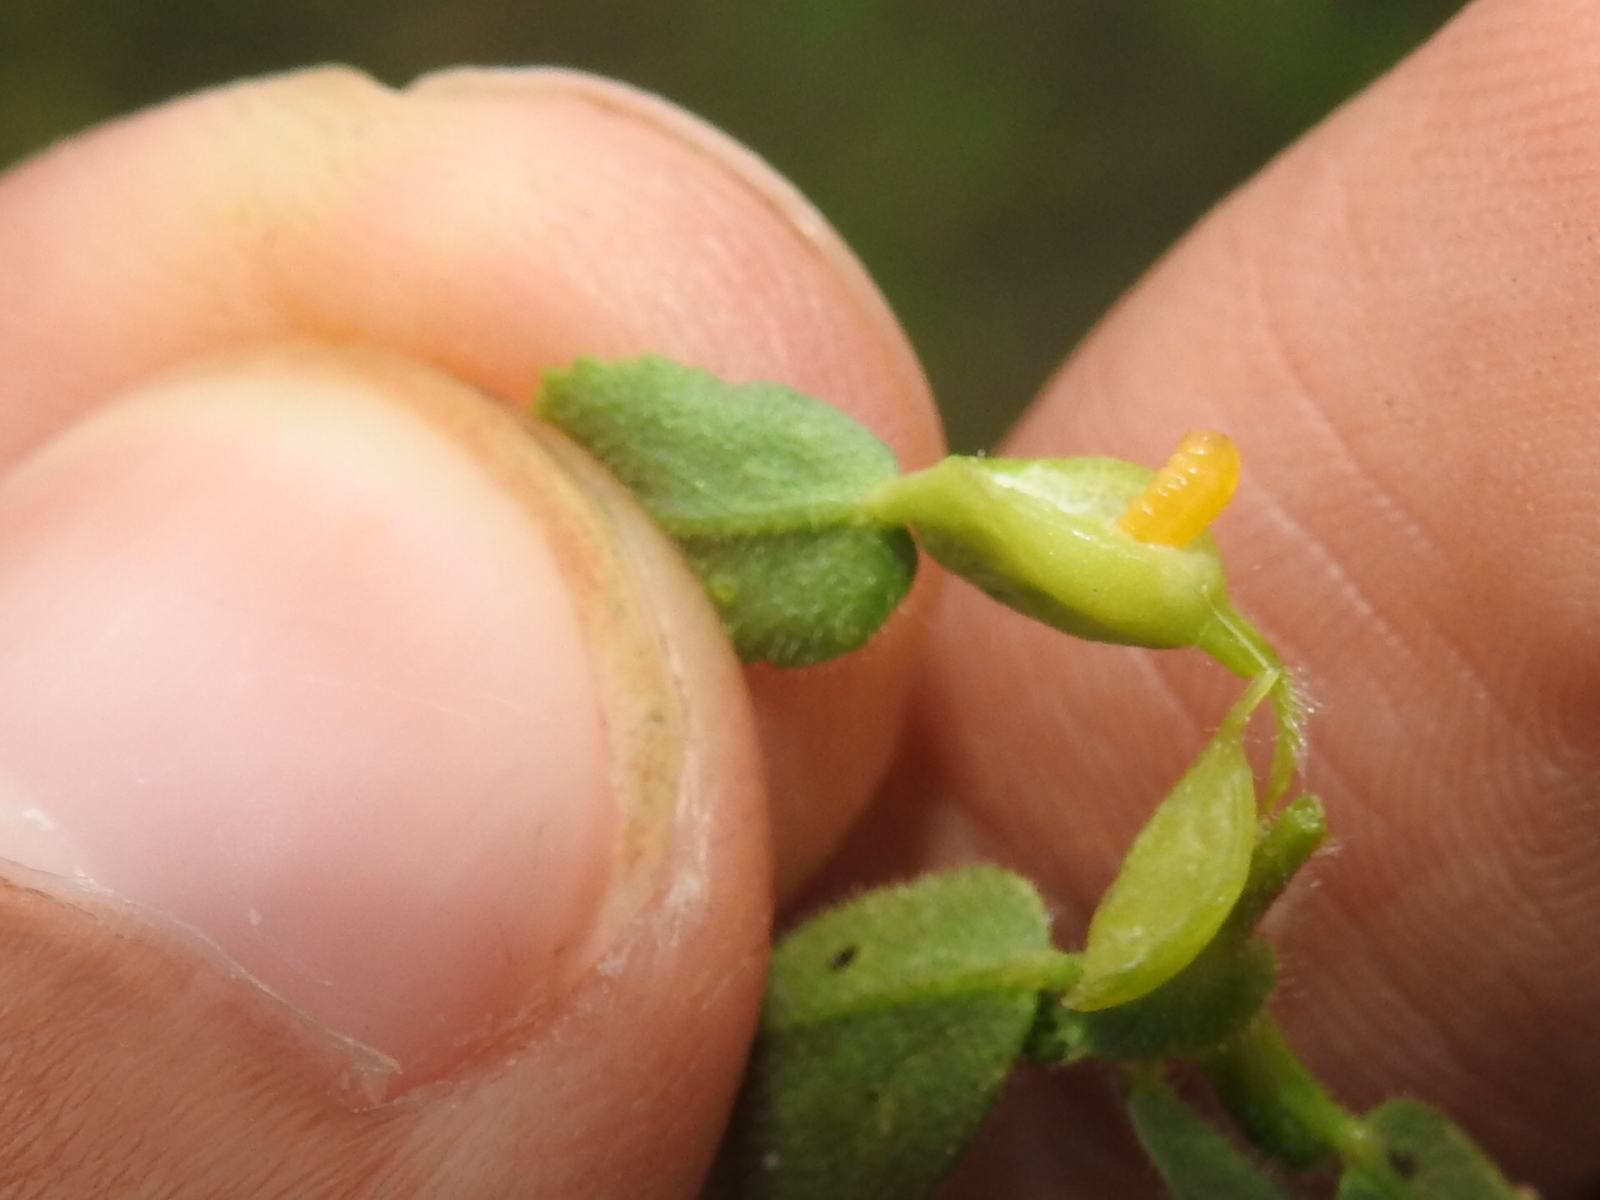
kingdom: Animalia
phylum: Arthropoda
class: Insecta
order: Diptera
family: Cecidomyiidae
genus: Asphondylia
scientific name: Asphondylia ononidis
